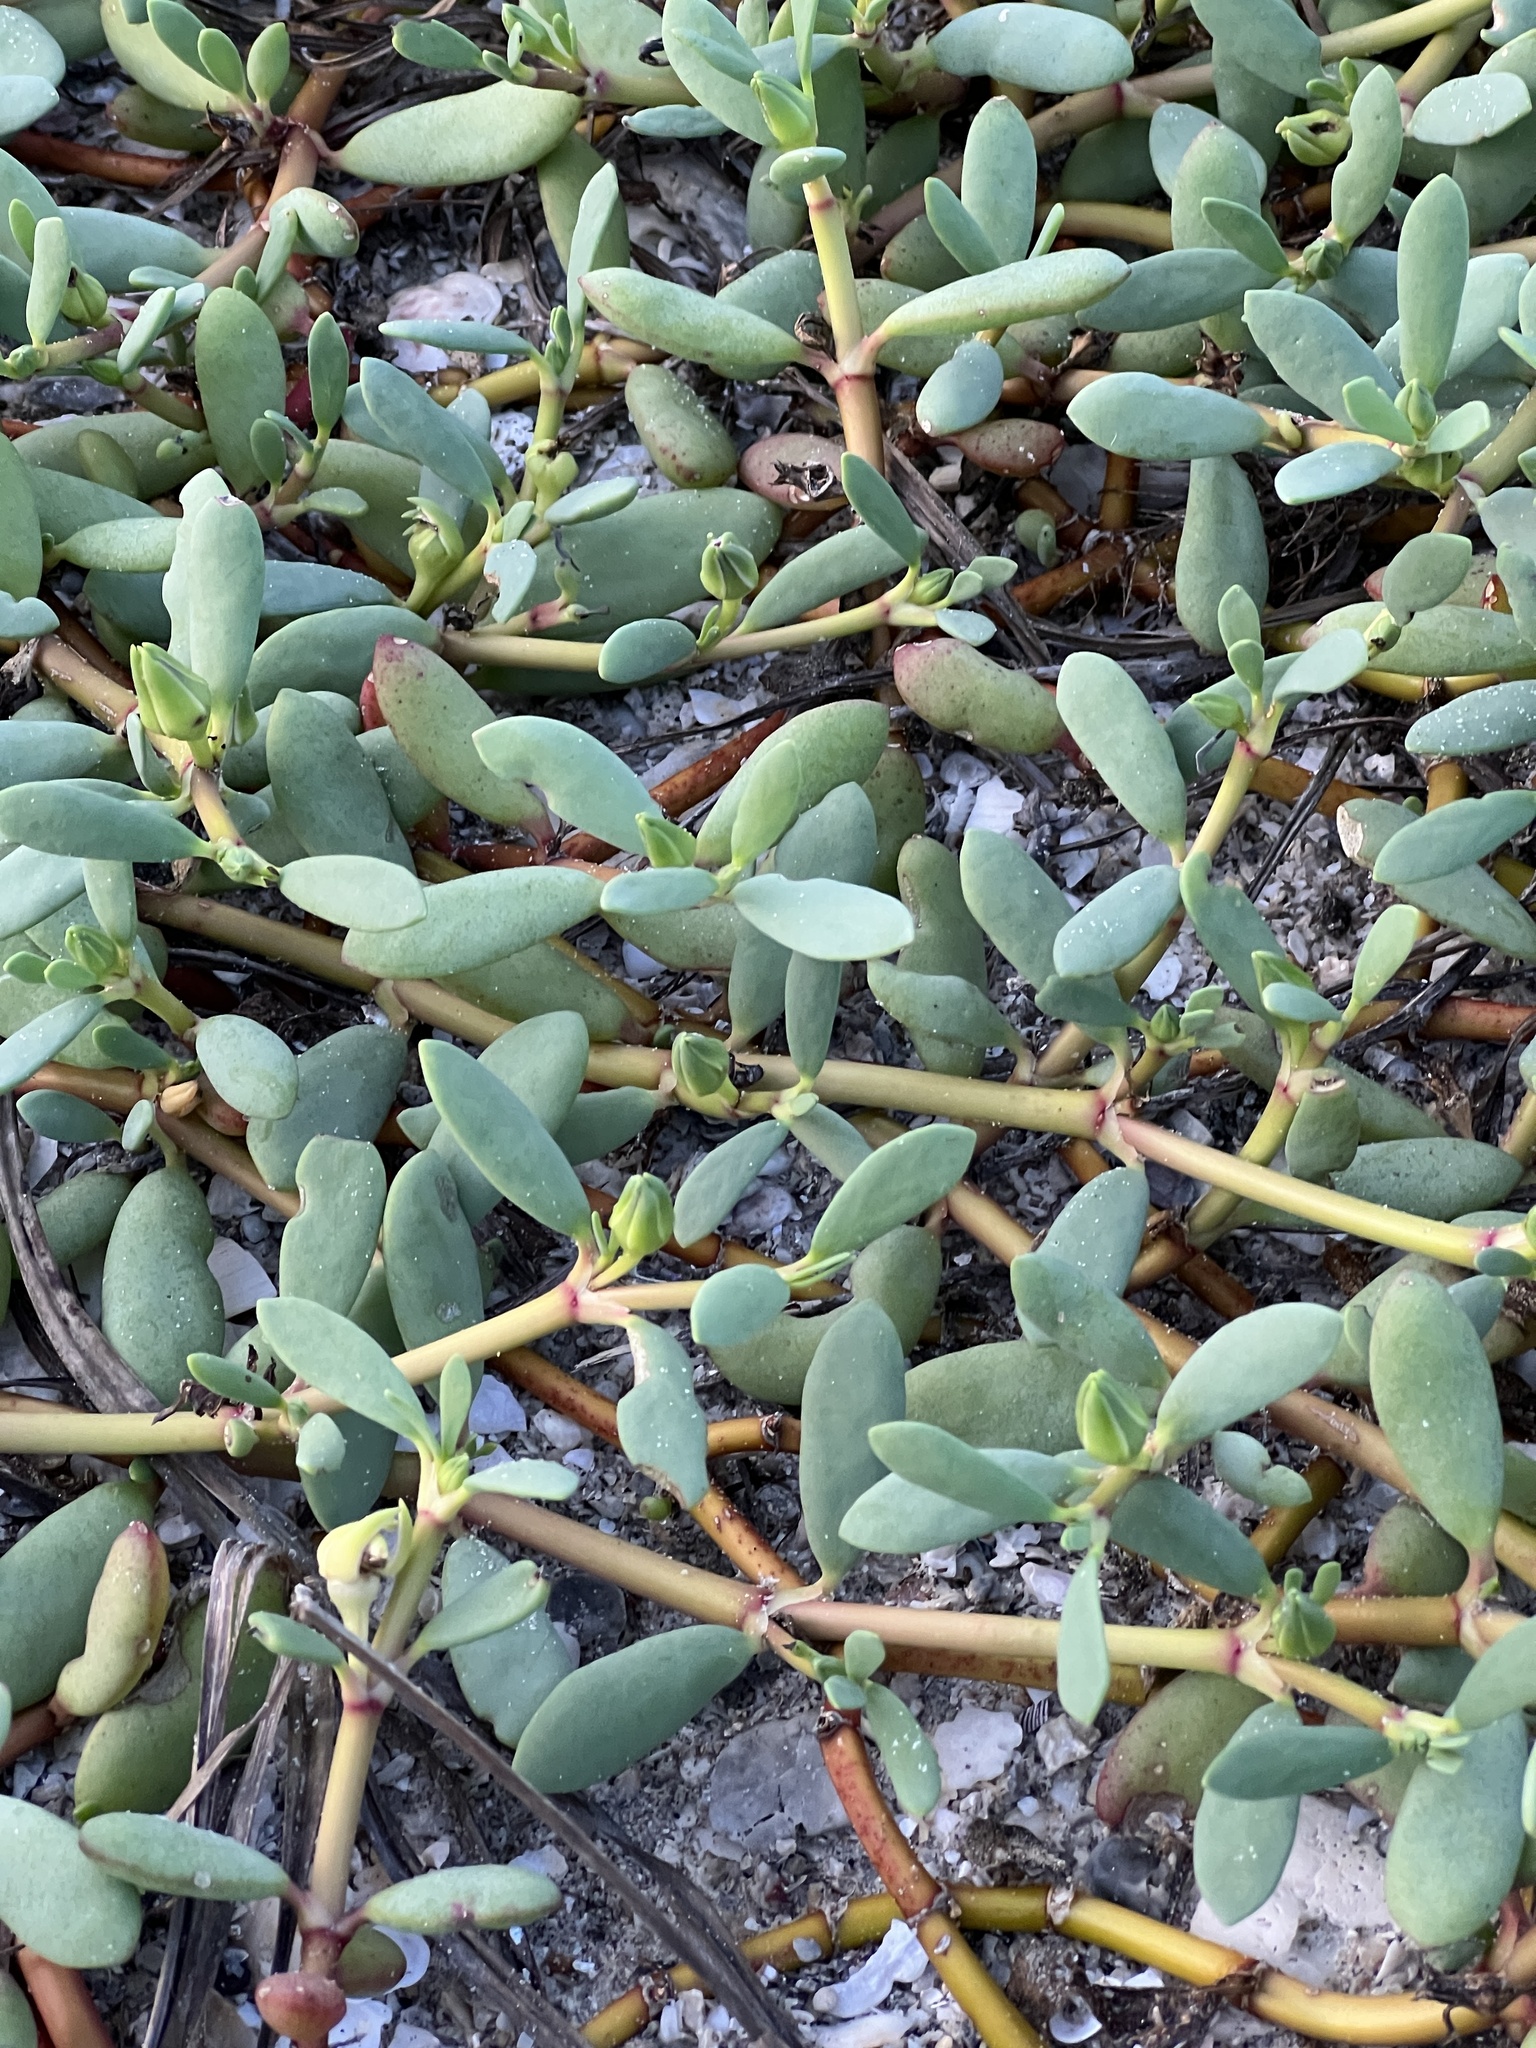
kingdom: Plantae
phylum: Tracheophyta
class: Magnoliopsida
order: Caryophyllales
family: Aizoaceae
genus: Sesuvium
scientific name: Sesuvium portulacastrum
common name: Sea-purslane
